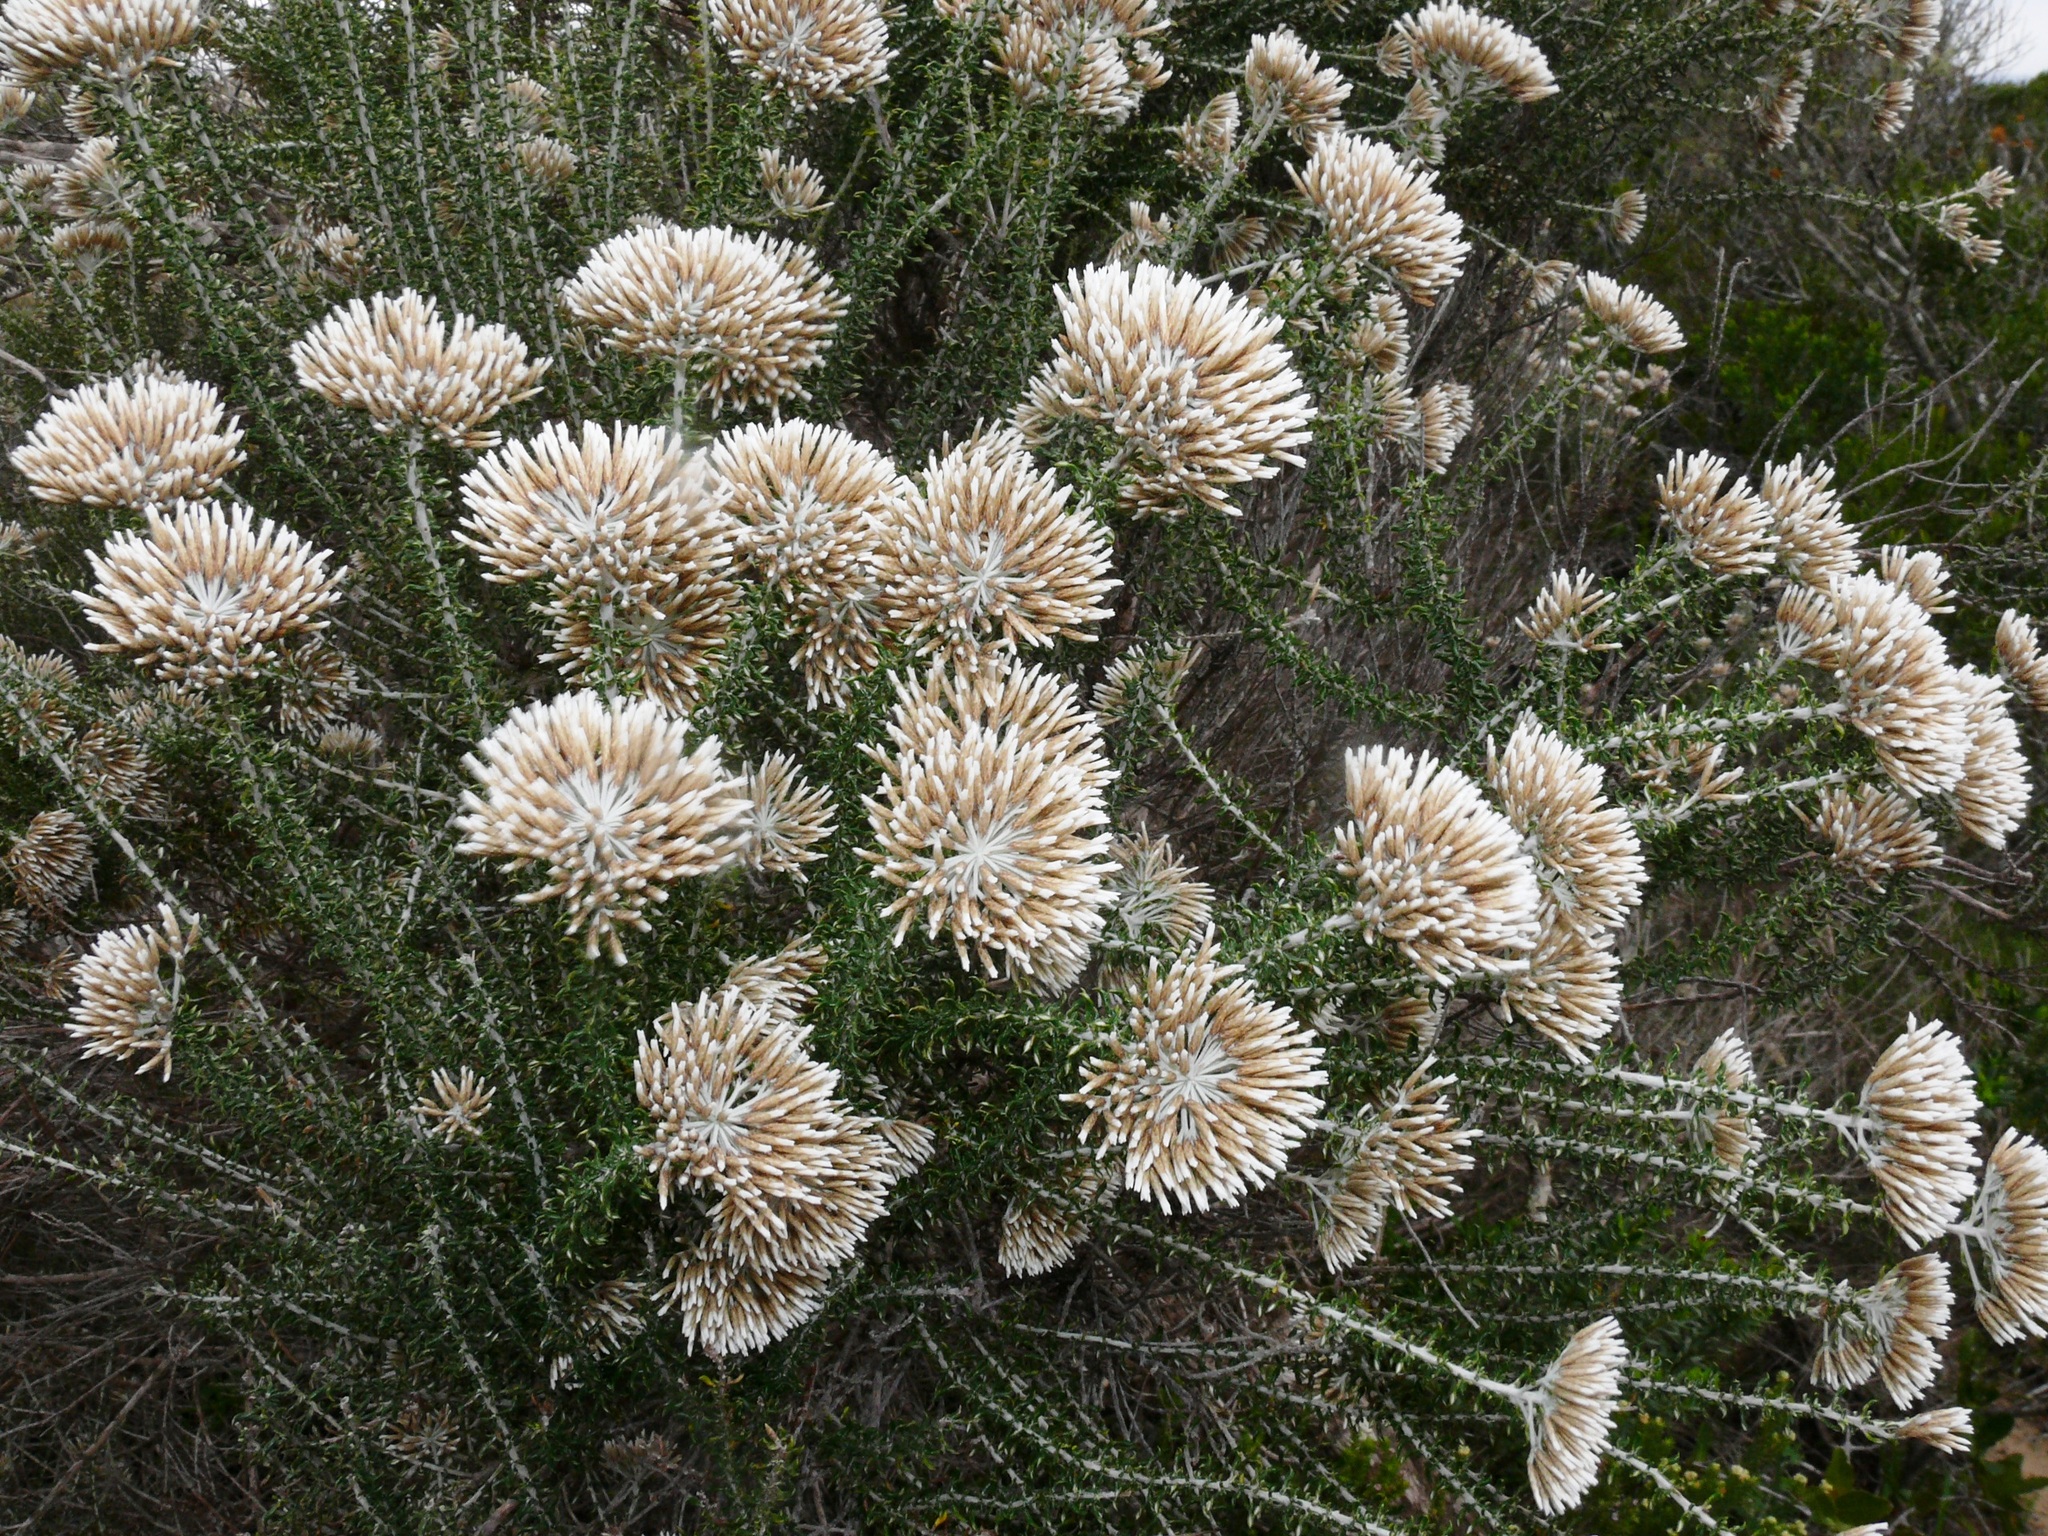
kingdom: Plantae
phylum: Tracheophyta
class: Magnoliopsida
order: Asterales
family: Asteraceae
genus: Metalasia
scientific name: Metalasia muricata
